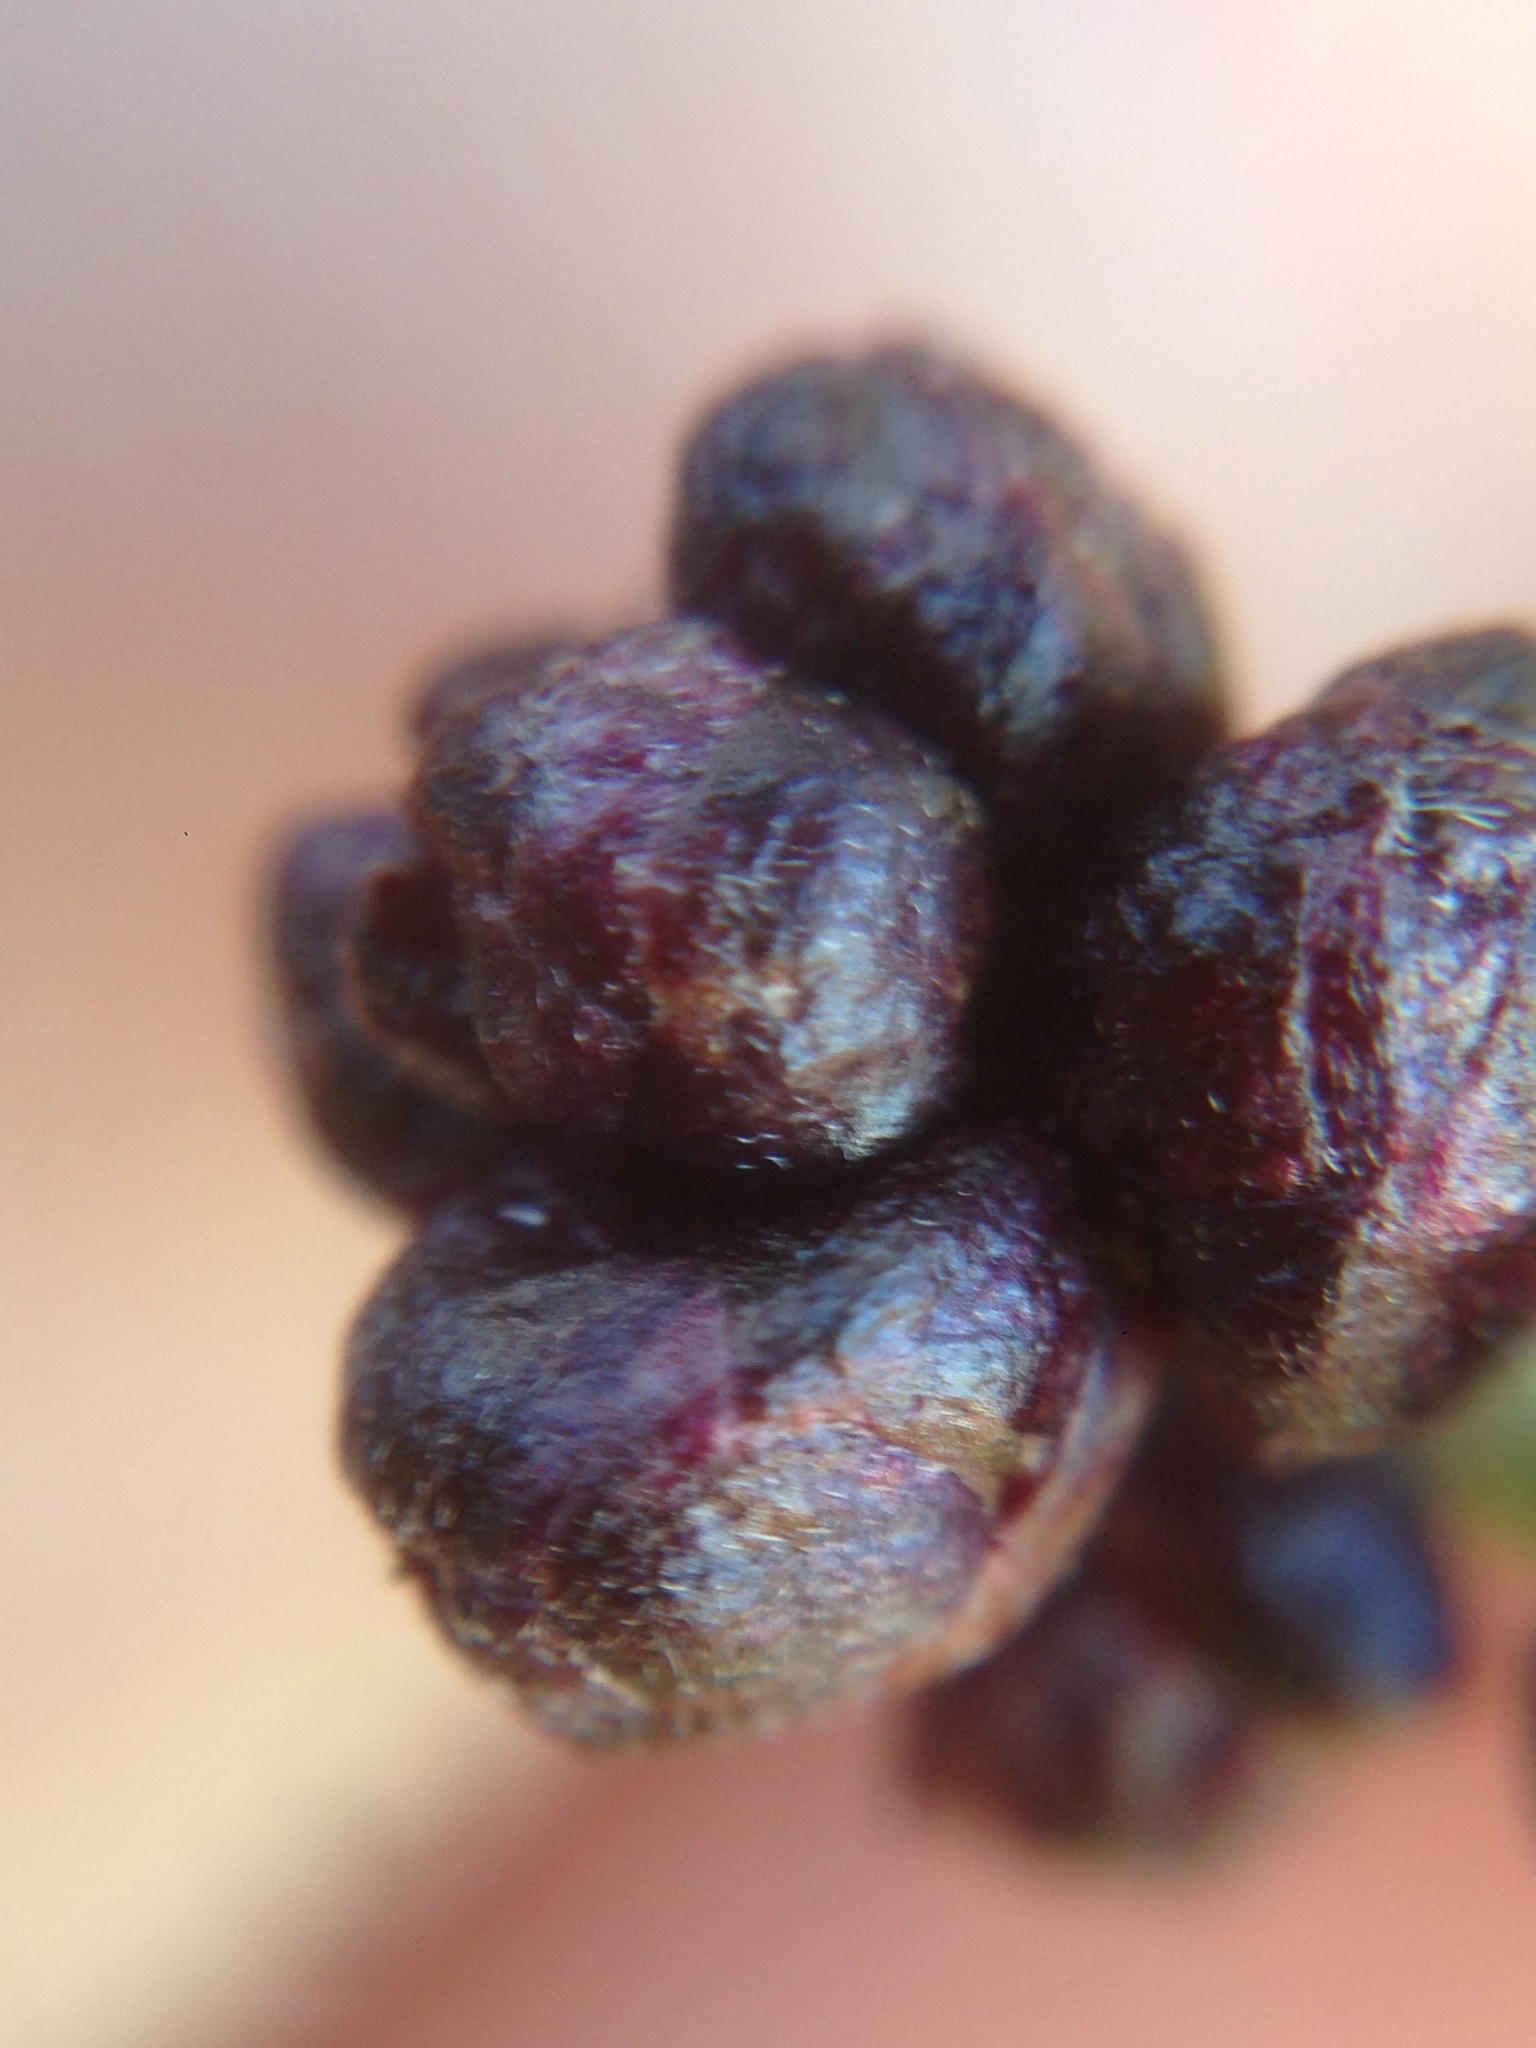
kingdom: Plantae
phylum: Tracheophyta
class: Magnoliopsida
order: Rosales
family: Rhamnaceae
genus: Ceanothus
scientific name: Ceanothus leucodermis
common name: Chaparral whitethorn
